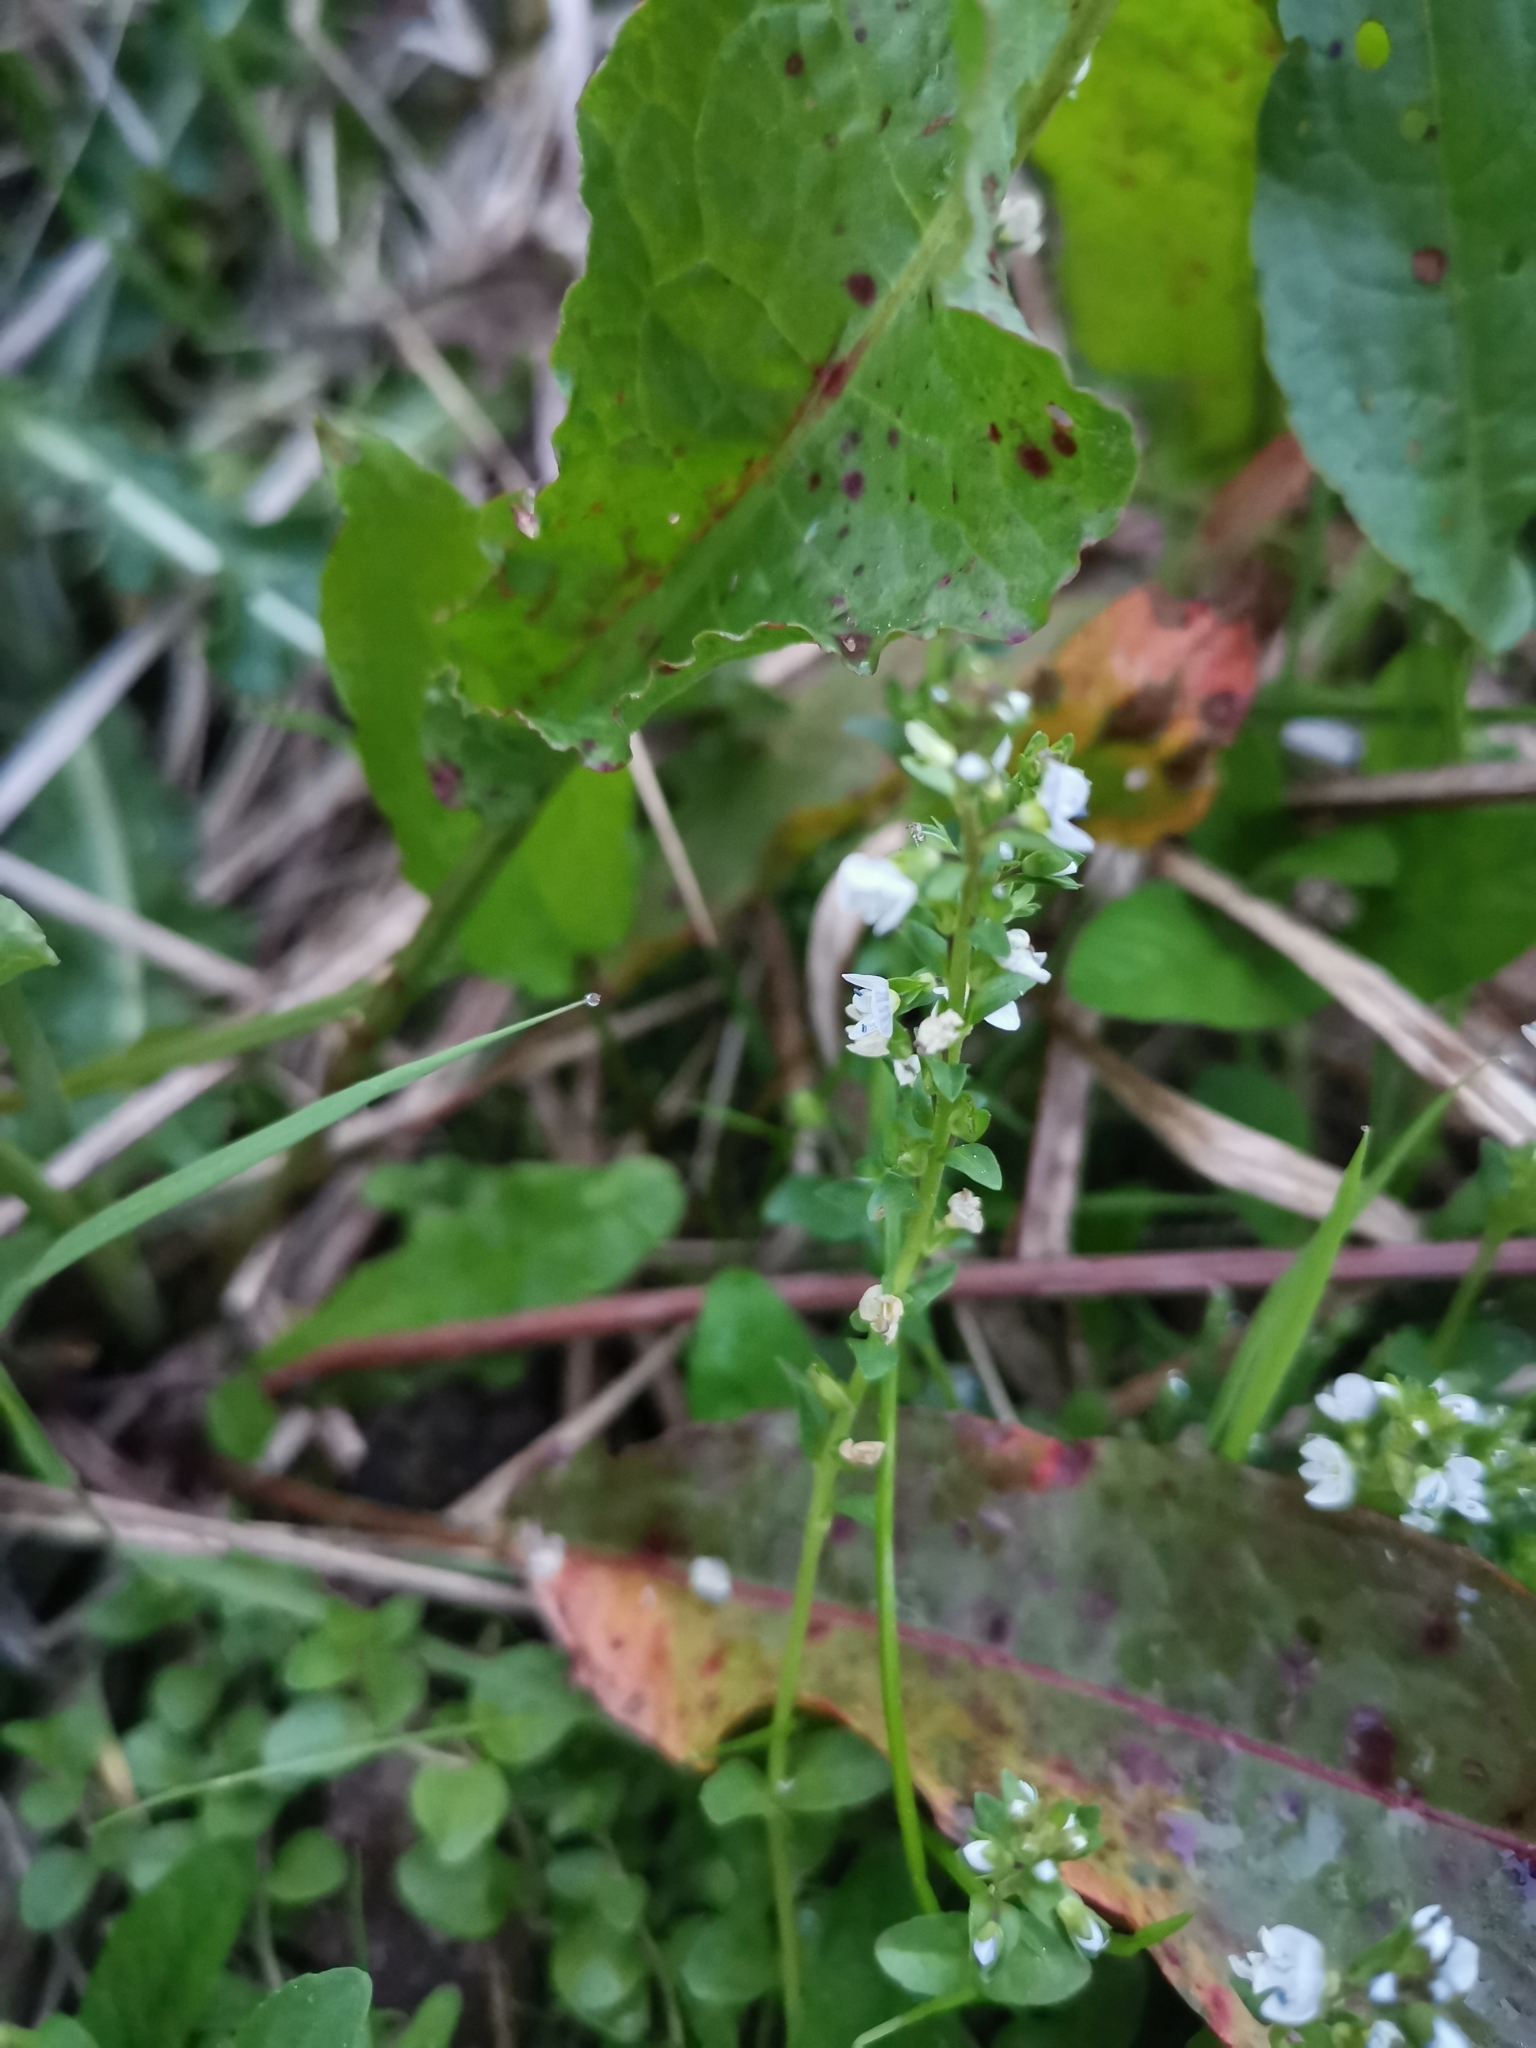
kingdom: Plantae
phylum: Tracheophyta
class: Magnoliopsida
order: Lamiales
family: Plantaginaceae
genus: Veronica
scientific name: Veronica serpyllifolia
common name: Thyme-leaved speedwell
